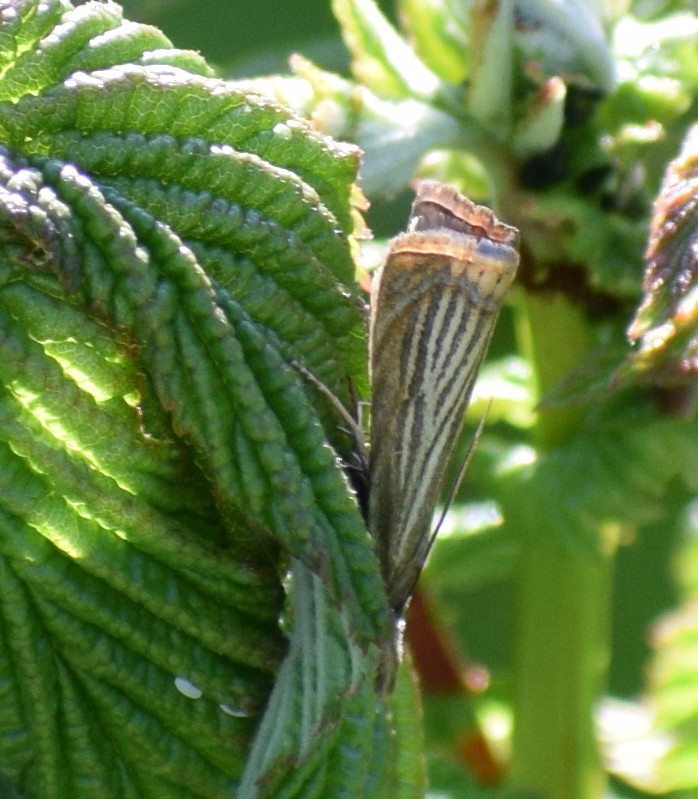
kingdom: Animalia
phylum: Arthropoda
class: Insecta
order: Lepidoptera
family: Crambidae
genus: Chrysoteuchia
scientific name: Chrysoteuchia culmella
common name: Garden grass-veneer
